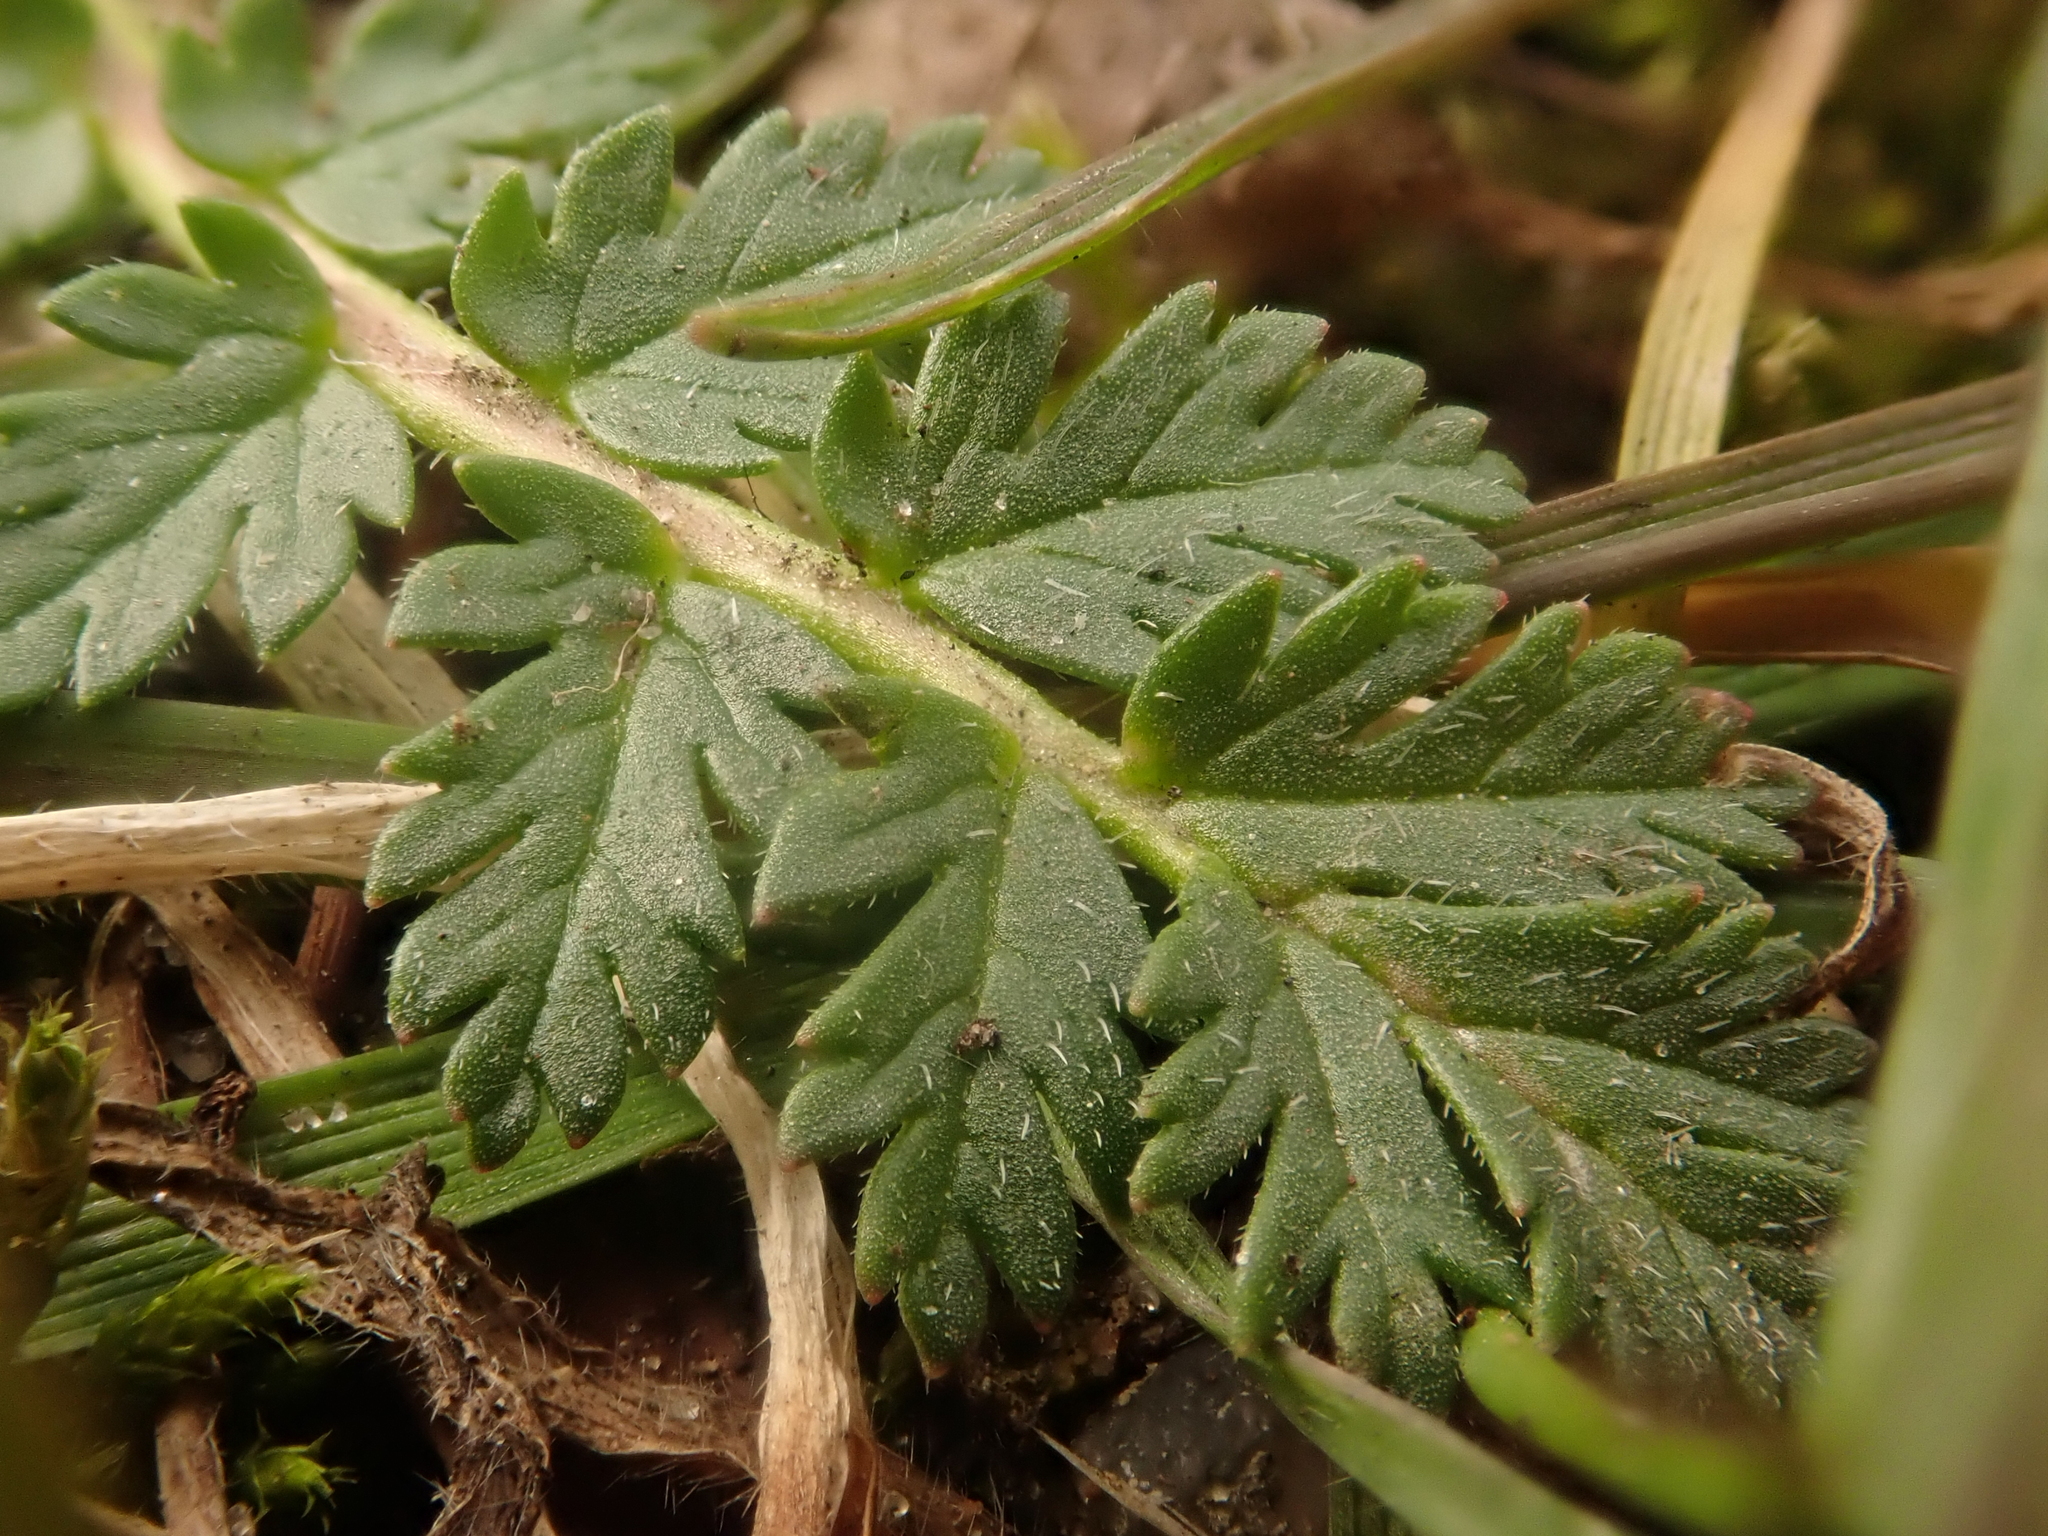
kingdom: Plantae
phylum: Tracheophyta
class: Magnoliopsida
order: Geraniales
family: Geraniaceae
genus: Erodium
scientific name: Erodium cicutarium
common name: Common stork's-bill
